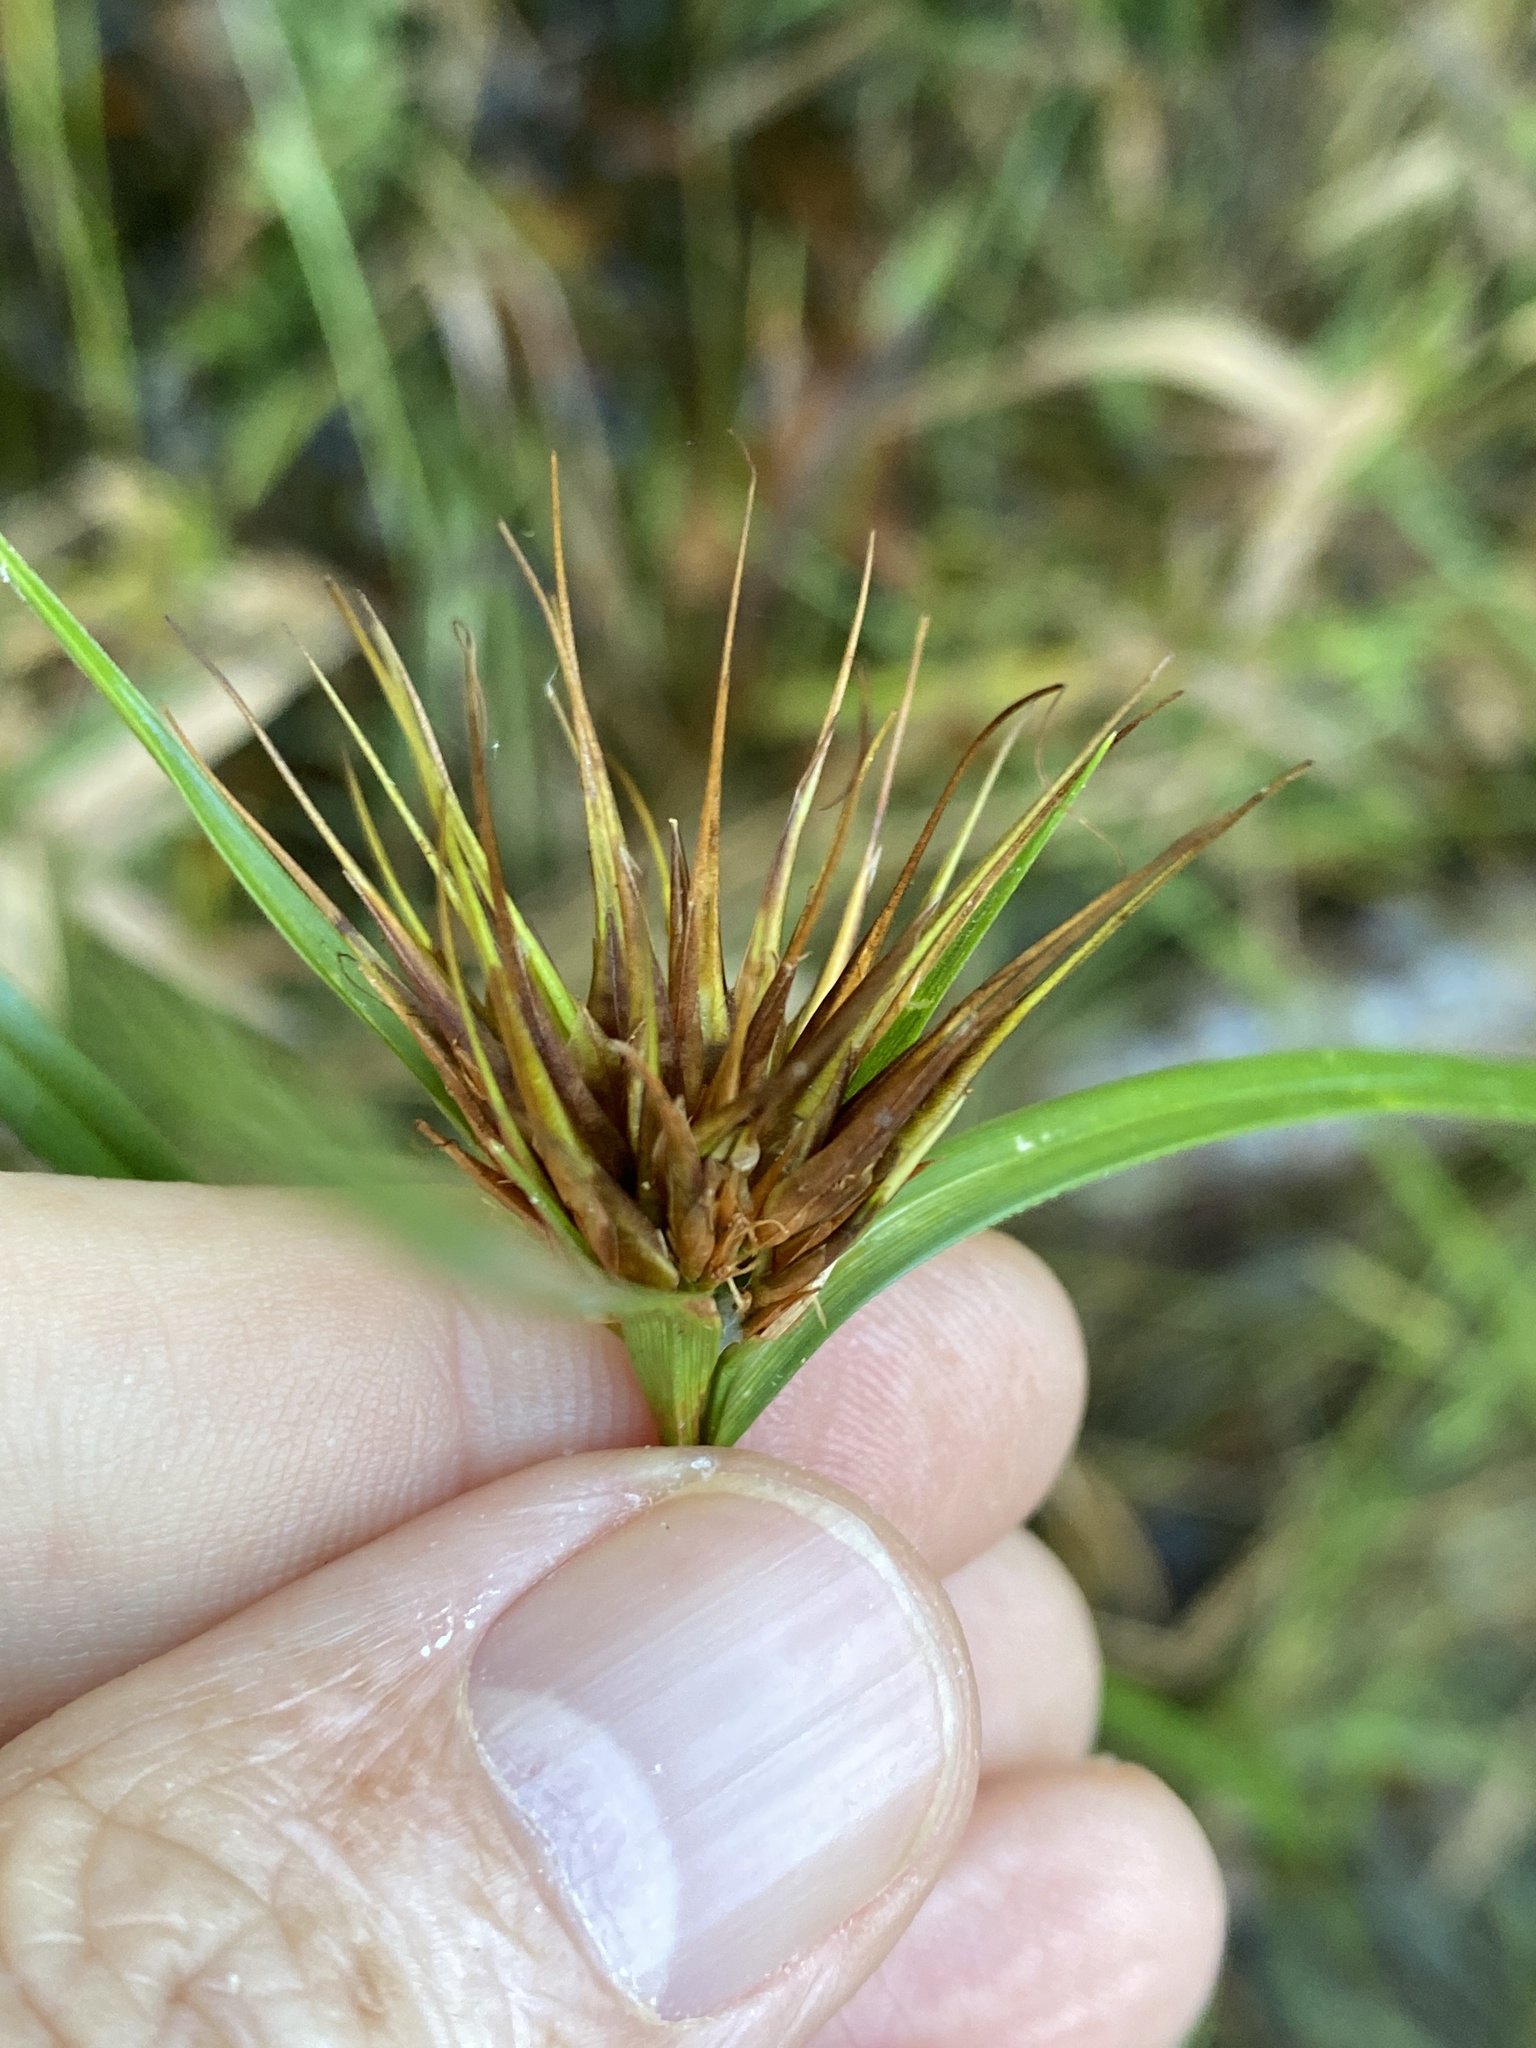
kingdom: Plantae
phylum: Tracheophyta
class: Liliopsida
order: Poales
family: Cyperaceae
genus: Rhynchospora
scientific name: Rhynchospora macrostachya
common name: Tall beakrush
